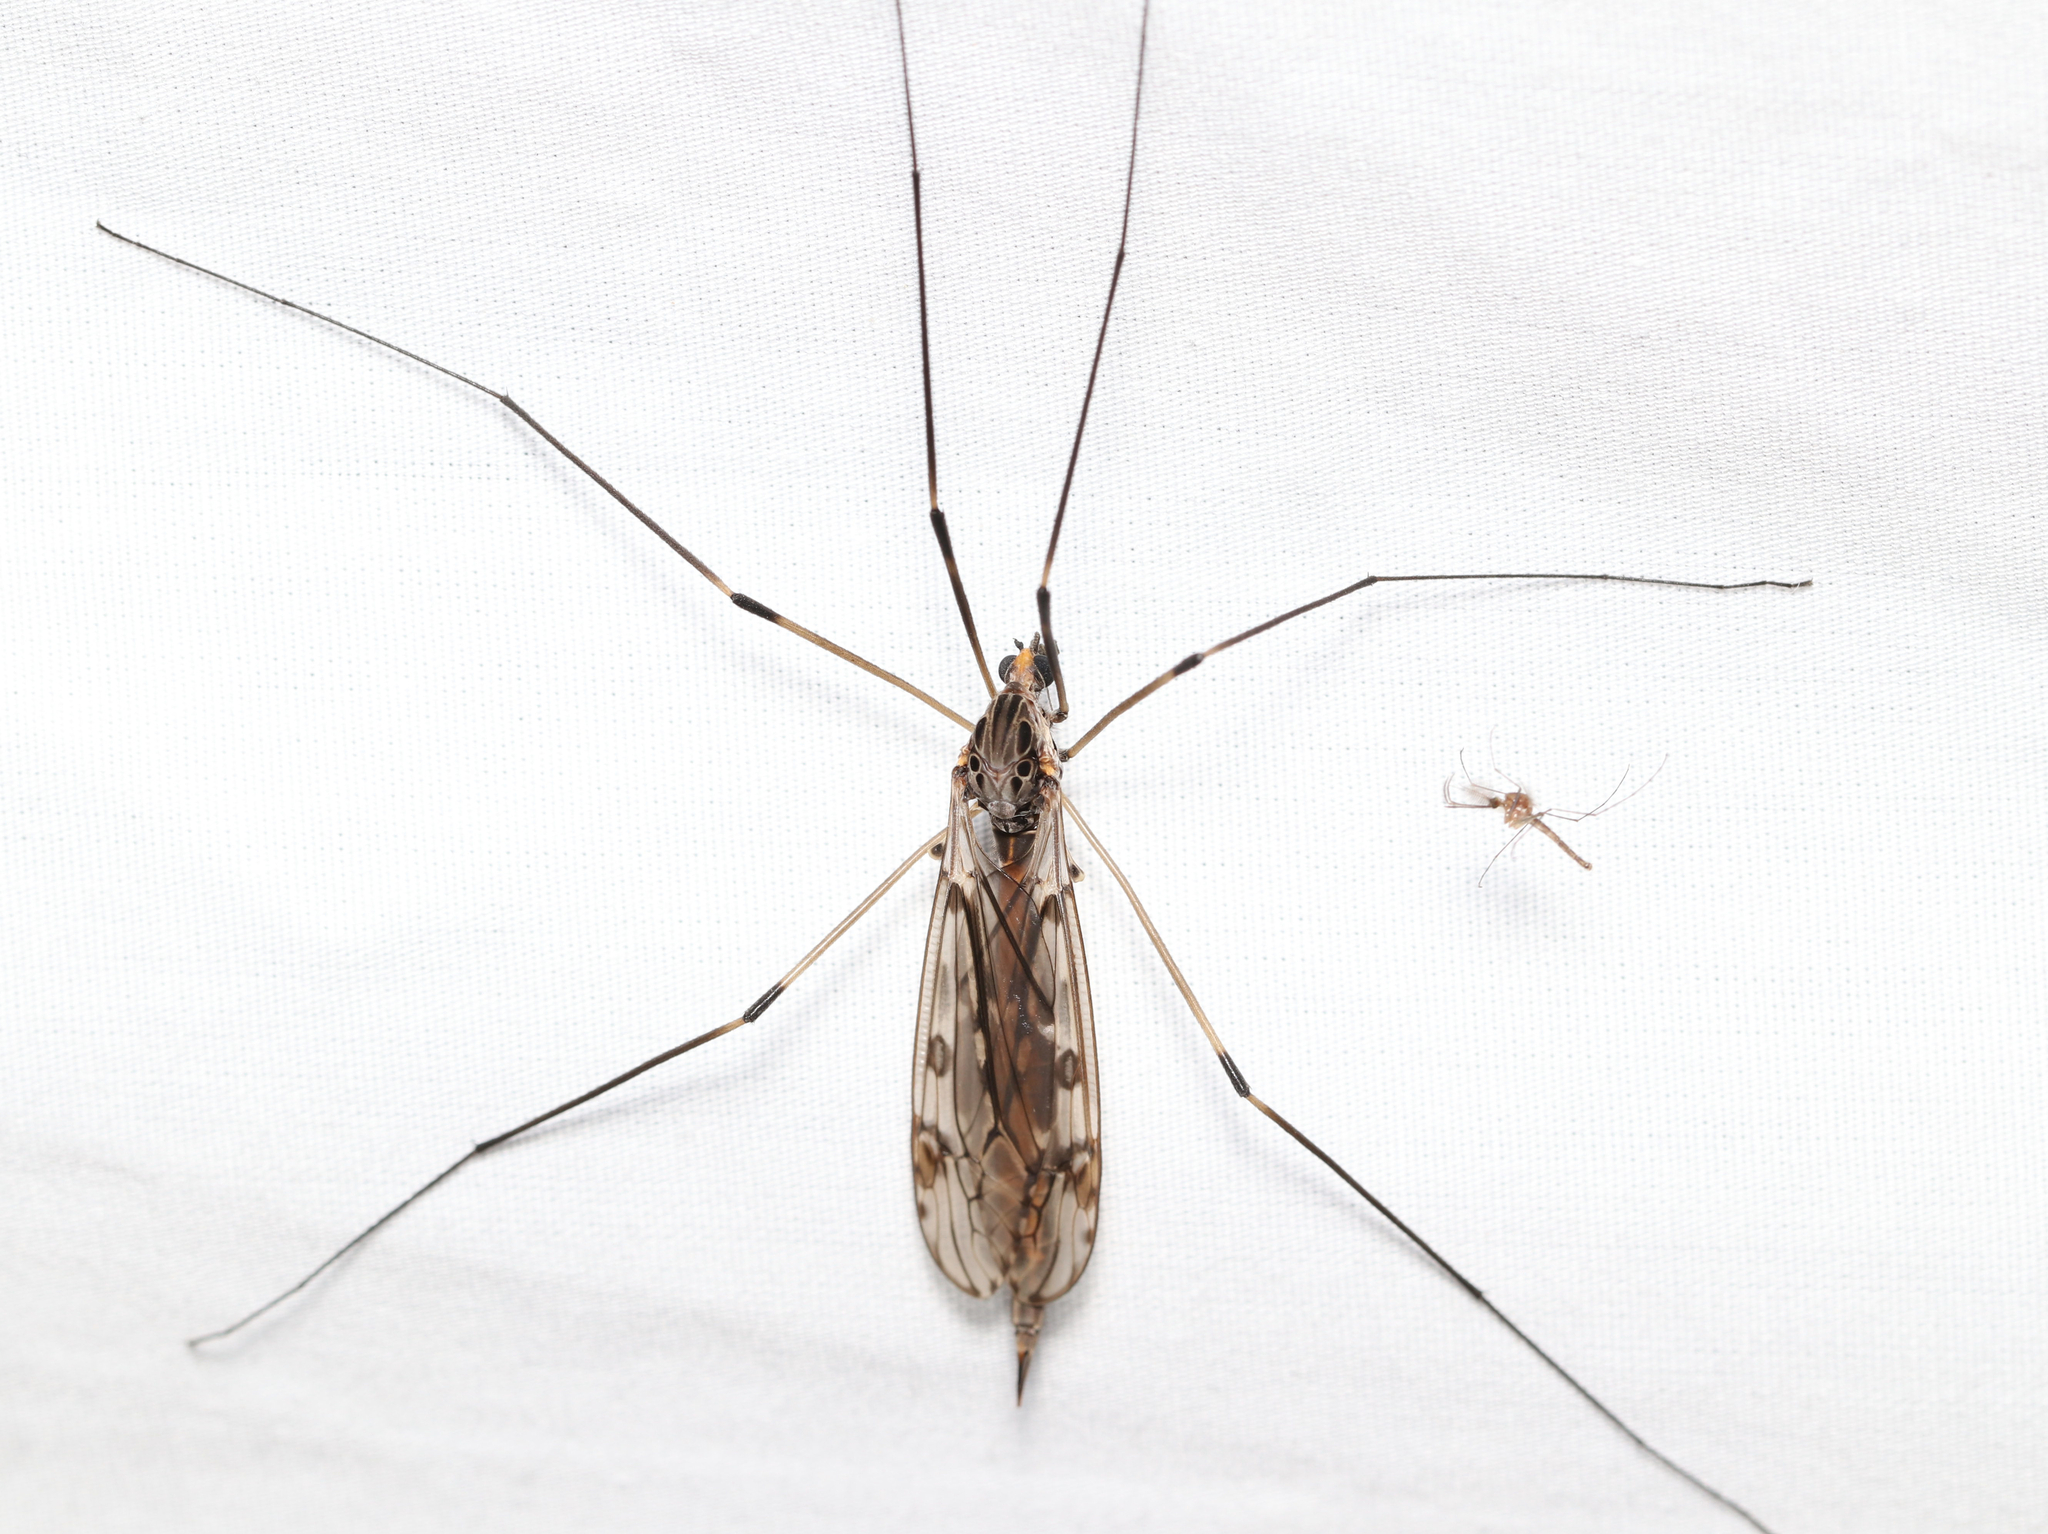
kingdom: Animalia
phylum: Arthropoda
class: Insecta
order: Diptera
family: Tipulidae
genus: Tipula
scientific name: Tipula abdominalis
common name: Giant crane fly
